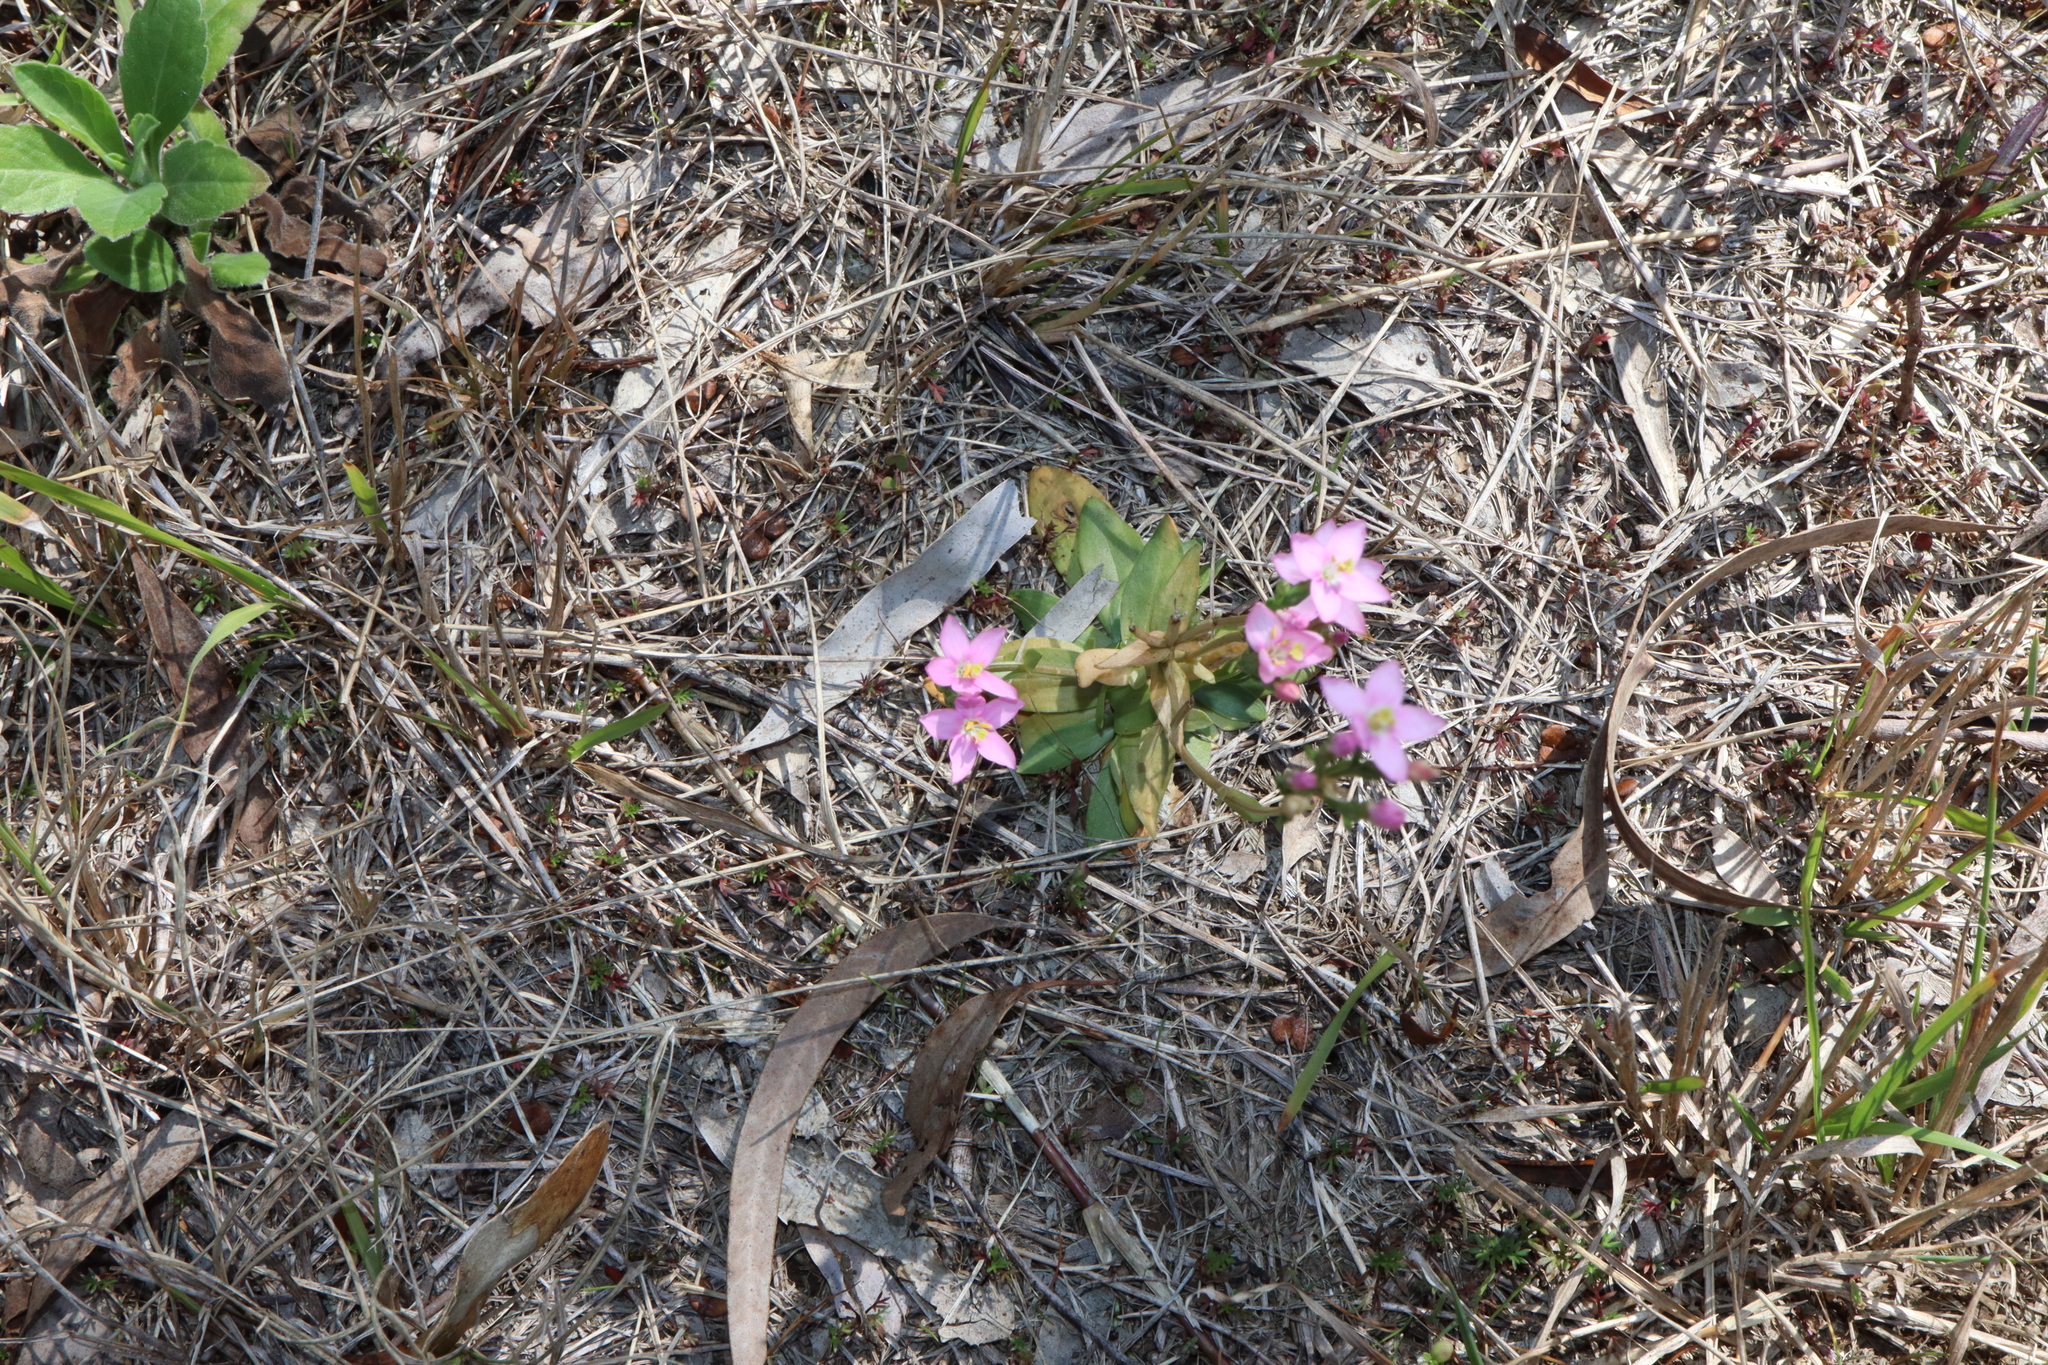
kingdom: Plantae
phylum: Tracheophyta
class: Magnoliopsida
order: Gentianales
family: Gentianaceae
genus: Centaurium
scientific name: Centaurium erythraea
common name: Common centaury
